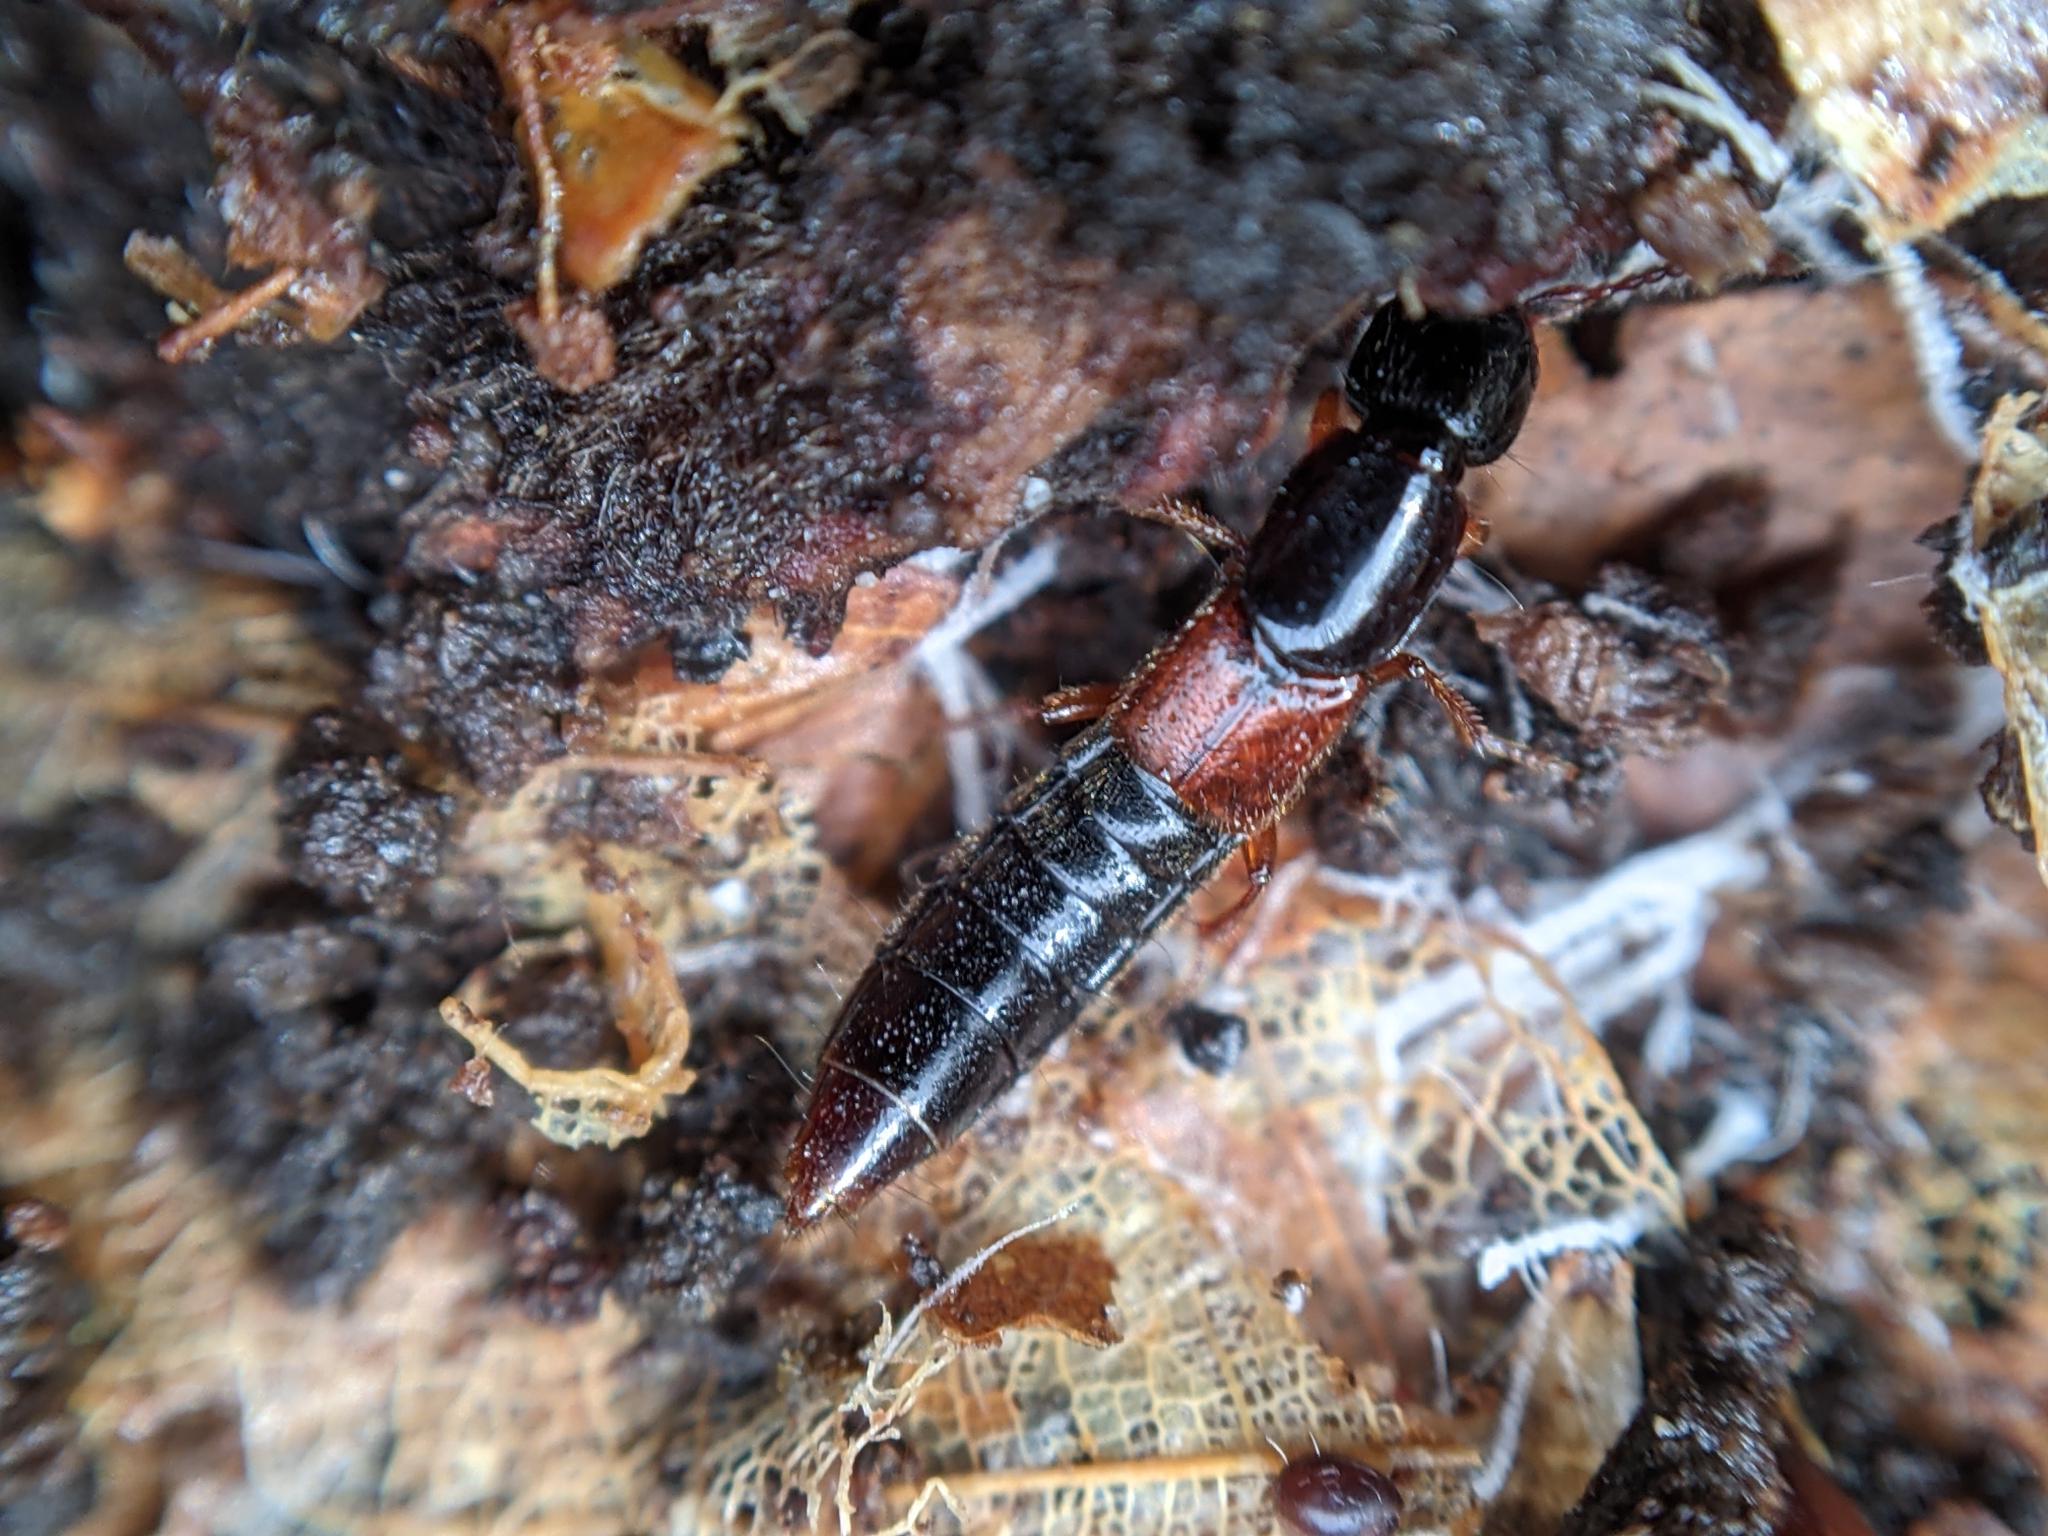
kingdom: Animalia
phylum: Arthropoda
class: Insecta
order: Coleoptera
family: Staphylinidae
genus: Othius
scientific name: Othius punctulatus
